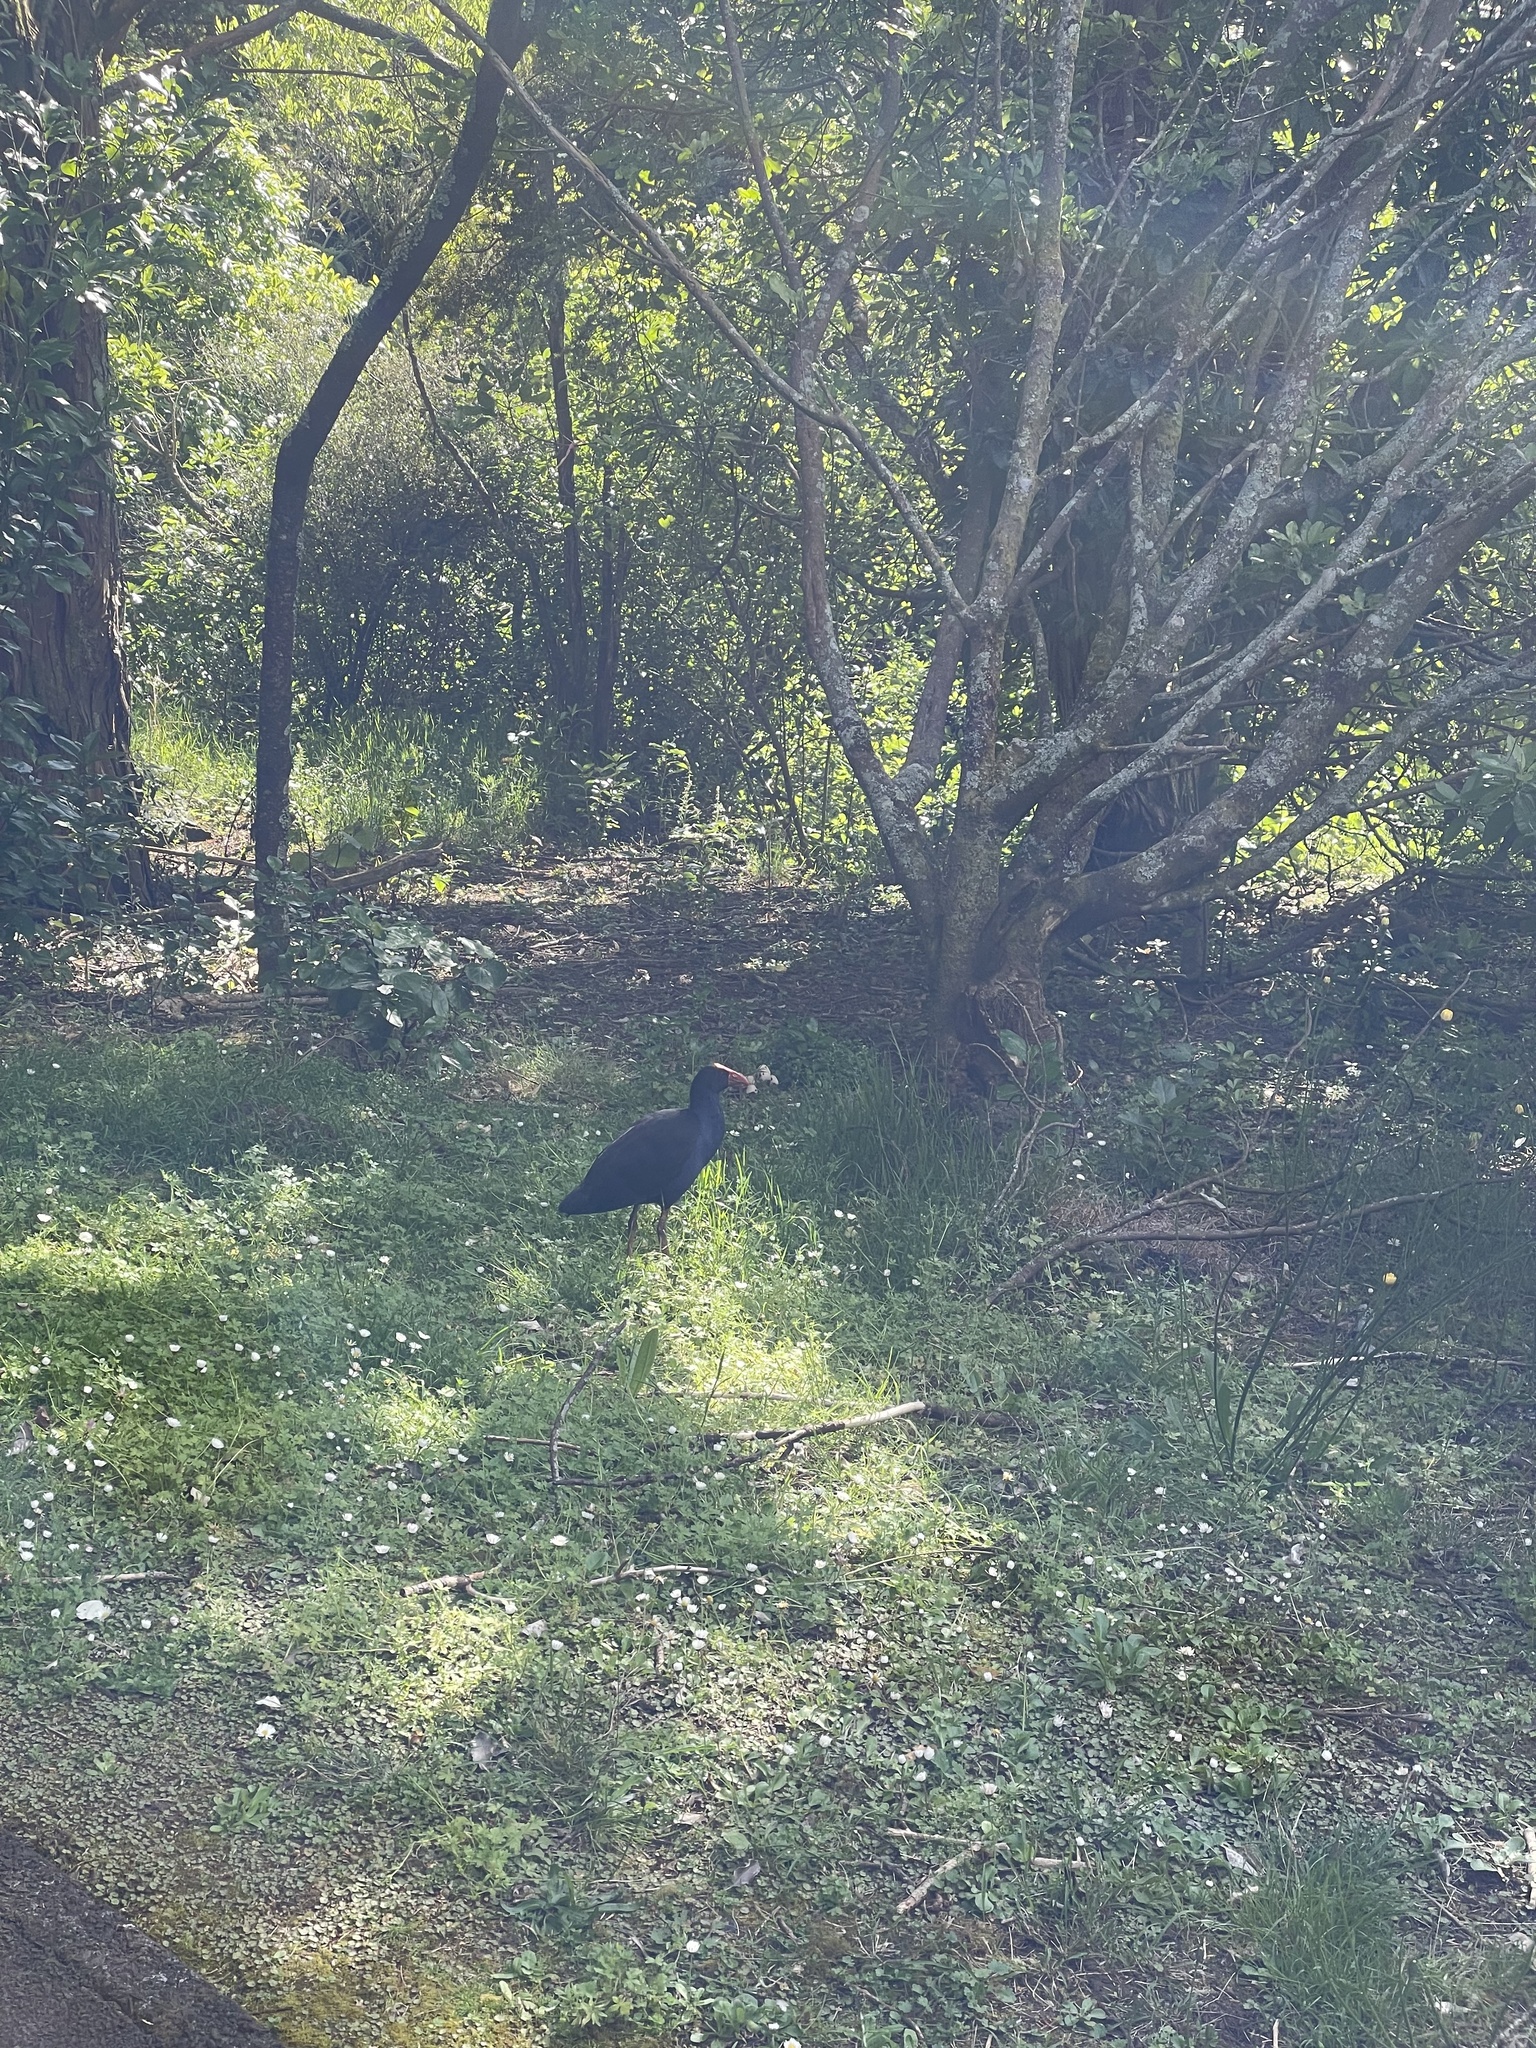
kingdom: Animalia
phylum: Chordata
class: Aves
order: Gruiformes
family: Rallidae
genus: Porphyrio
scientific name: Porphyrio melanotus
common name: Australasian swamphen
